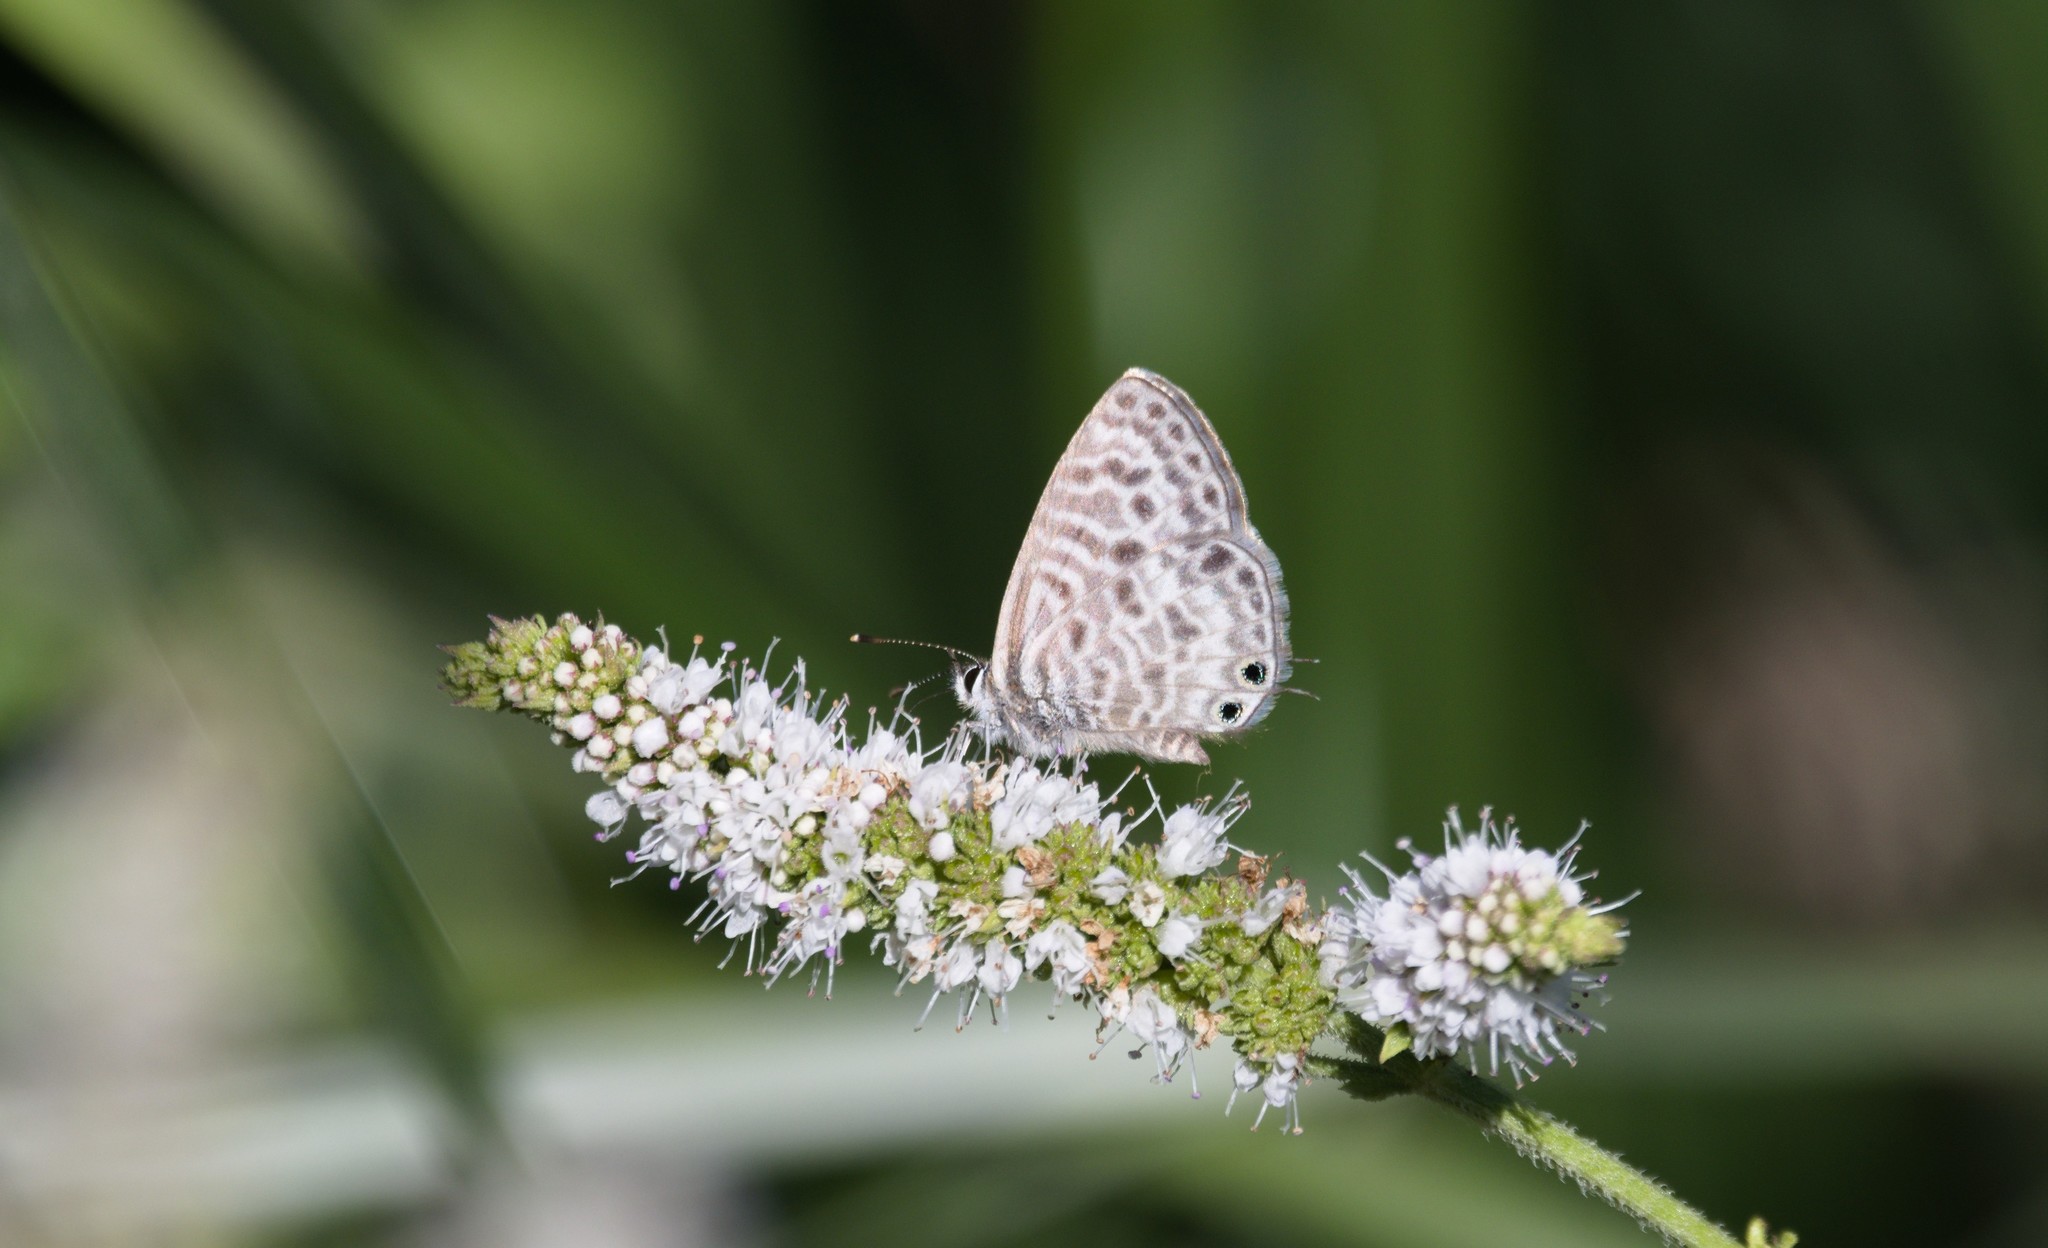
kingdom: Animalia
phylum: Arthropoda
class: Insecta
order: Lepidoptera
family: Lycaenidae
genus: Leptotes
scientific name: Leptotes pirithous
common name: Lang's short-tailed blue
